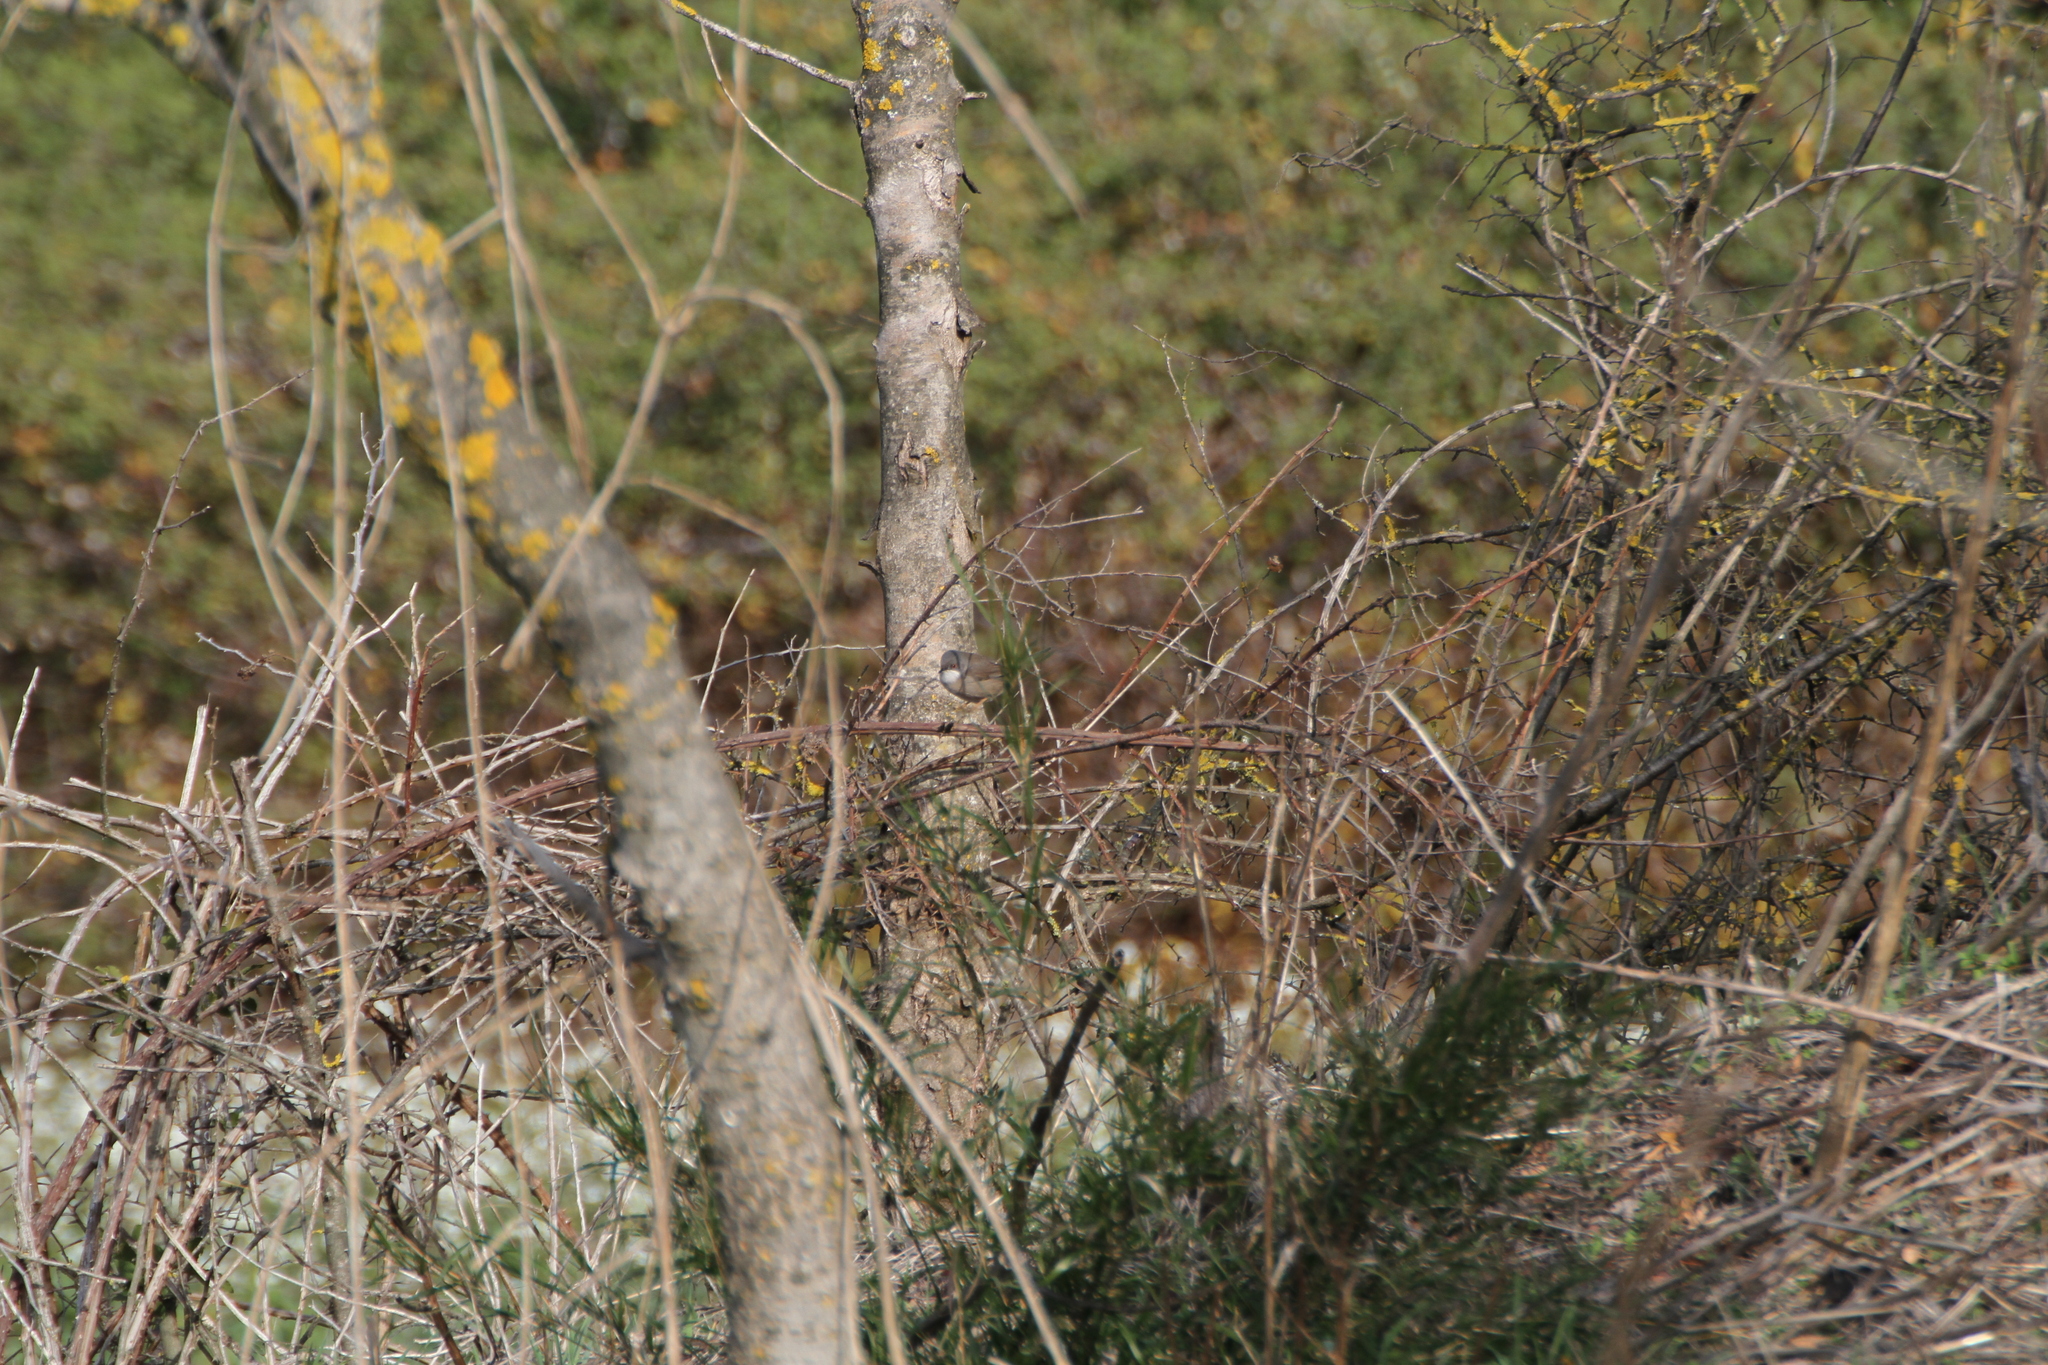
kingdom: Animalia
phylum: Chordata
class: Aves
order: Passeriformes
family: Sylviidae
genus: Curruca
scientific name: Curruca melanocephala
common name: Sardinian warbler
